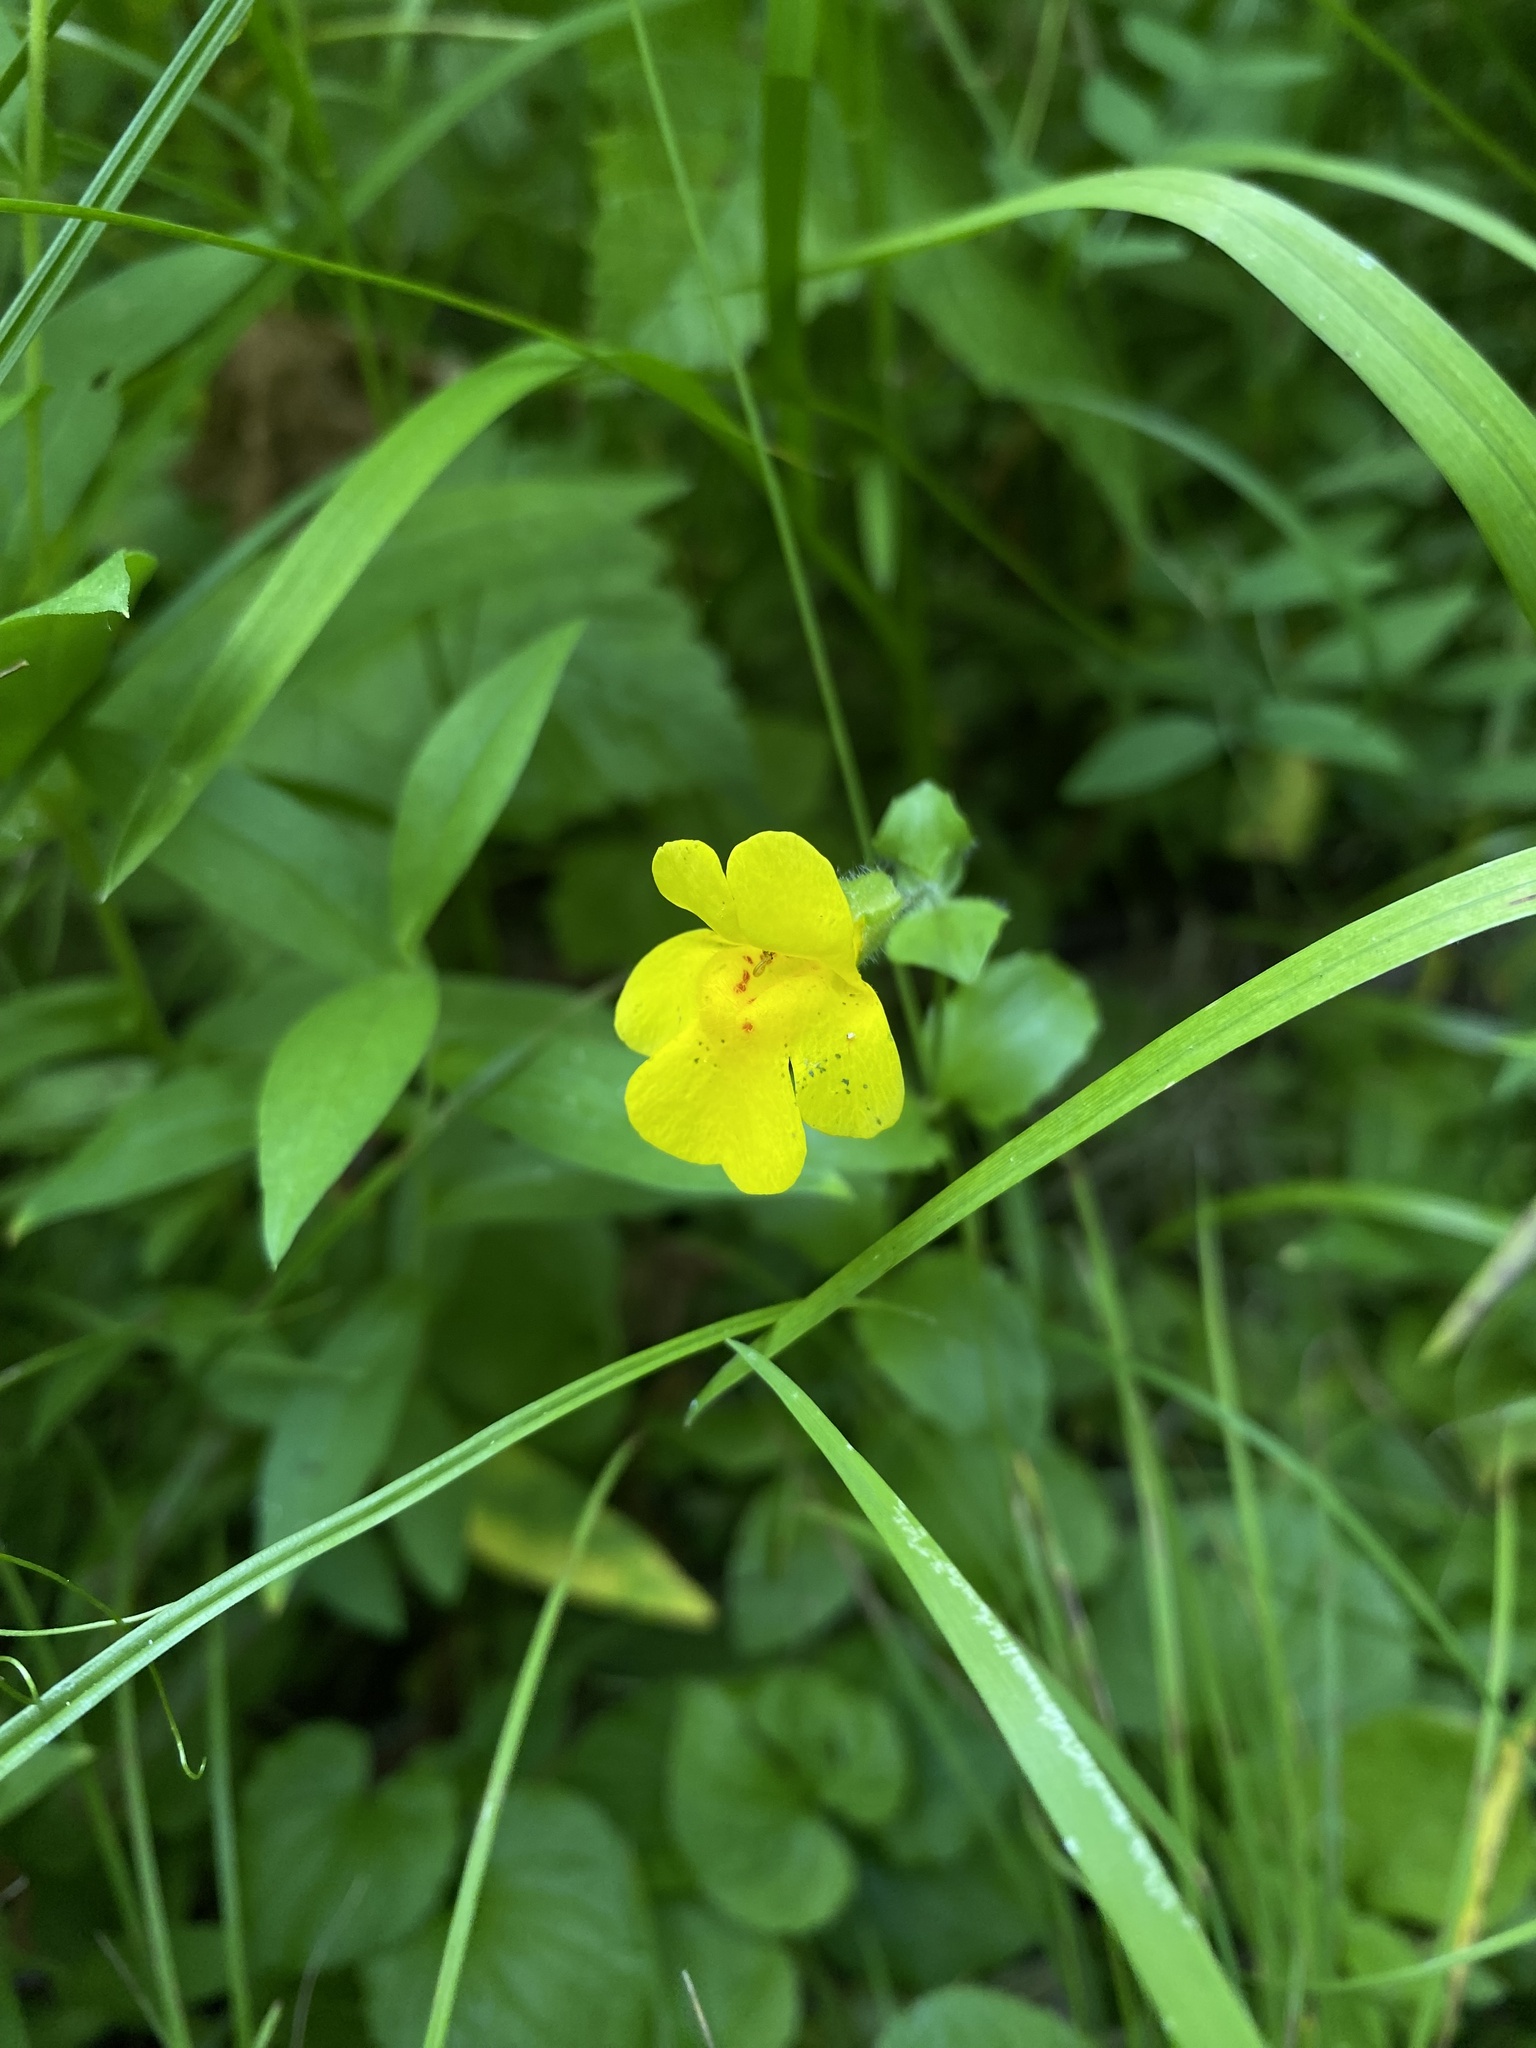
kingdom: Plantae
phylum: Tracheophyta
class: Magnoliopsida
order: Lamiales
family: Phrymaceae
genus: Erythranthe
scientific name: Erythranthe guttata
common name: Monkeyflower
